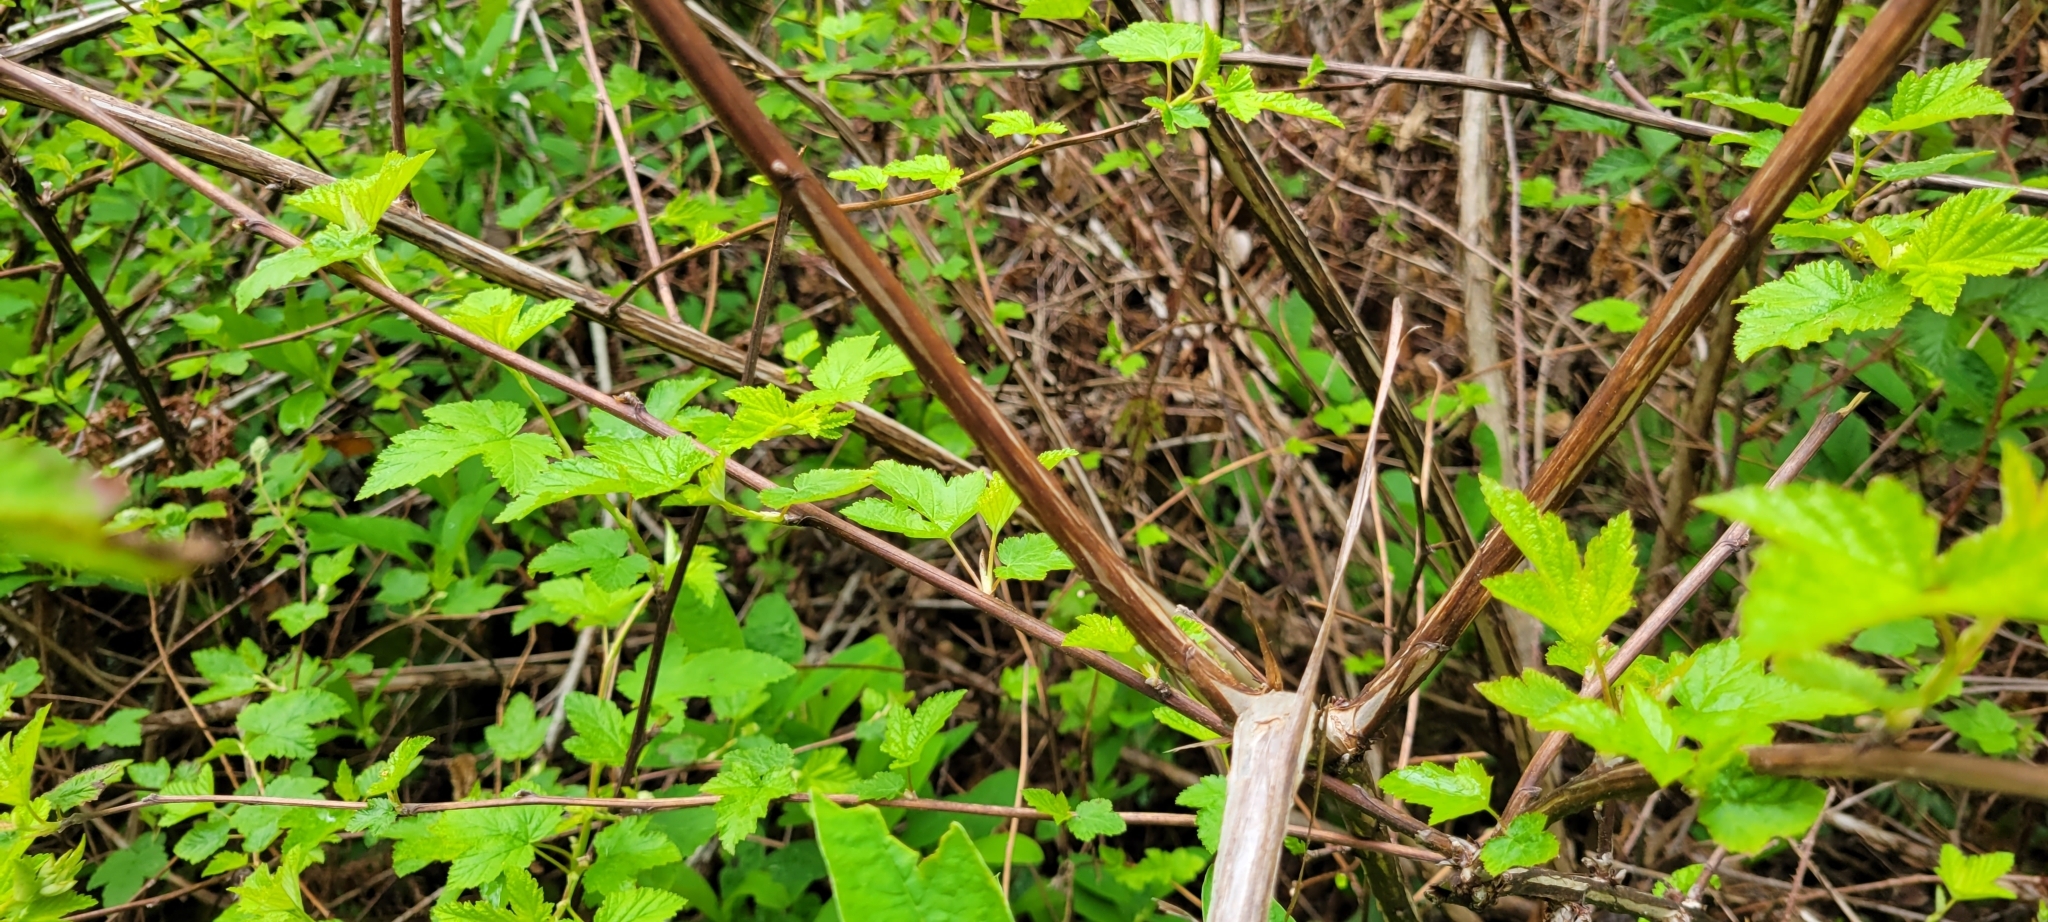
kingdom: Plantae
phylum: Tracheophyta
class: Magnoliopsida
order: Rosales
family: Rosaceae
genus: Physocarpus
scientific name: Physocarpus capitatus
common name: Pacific ninebark
